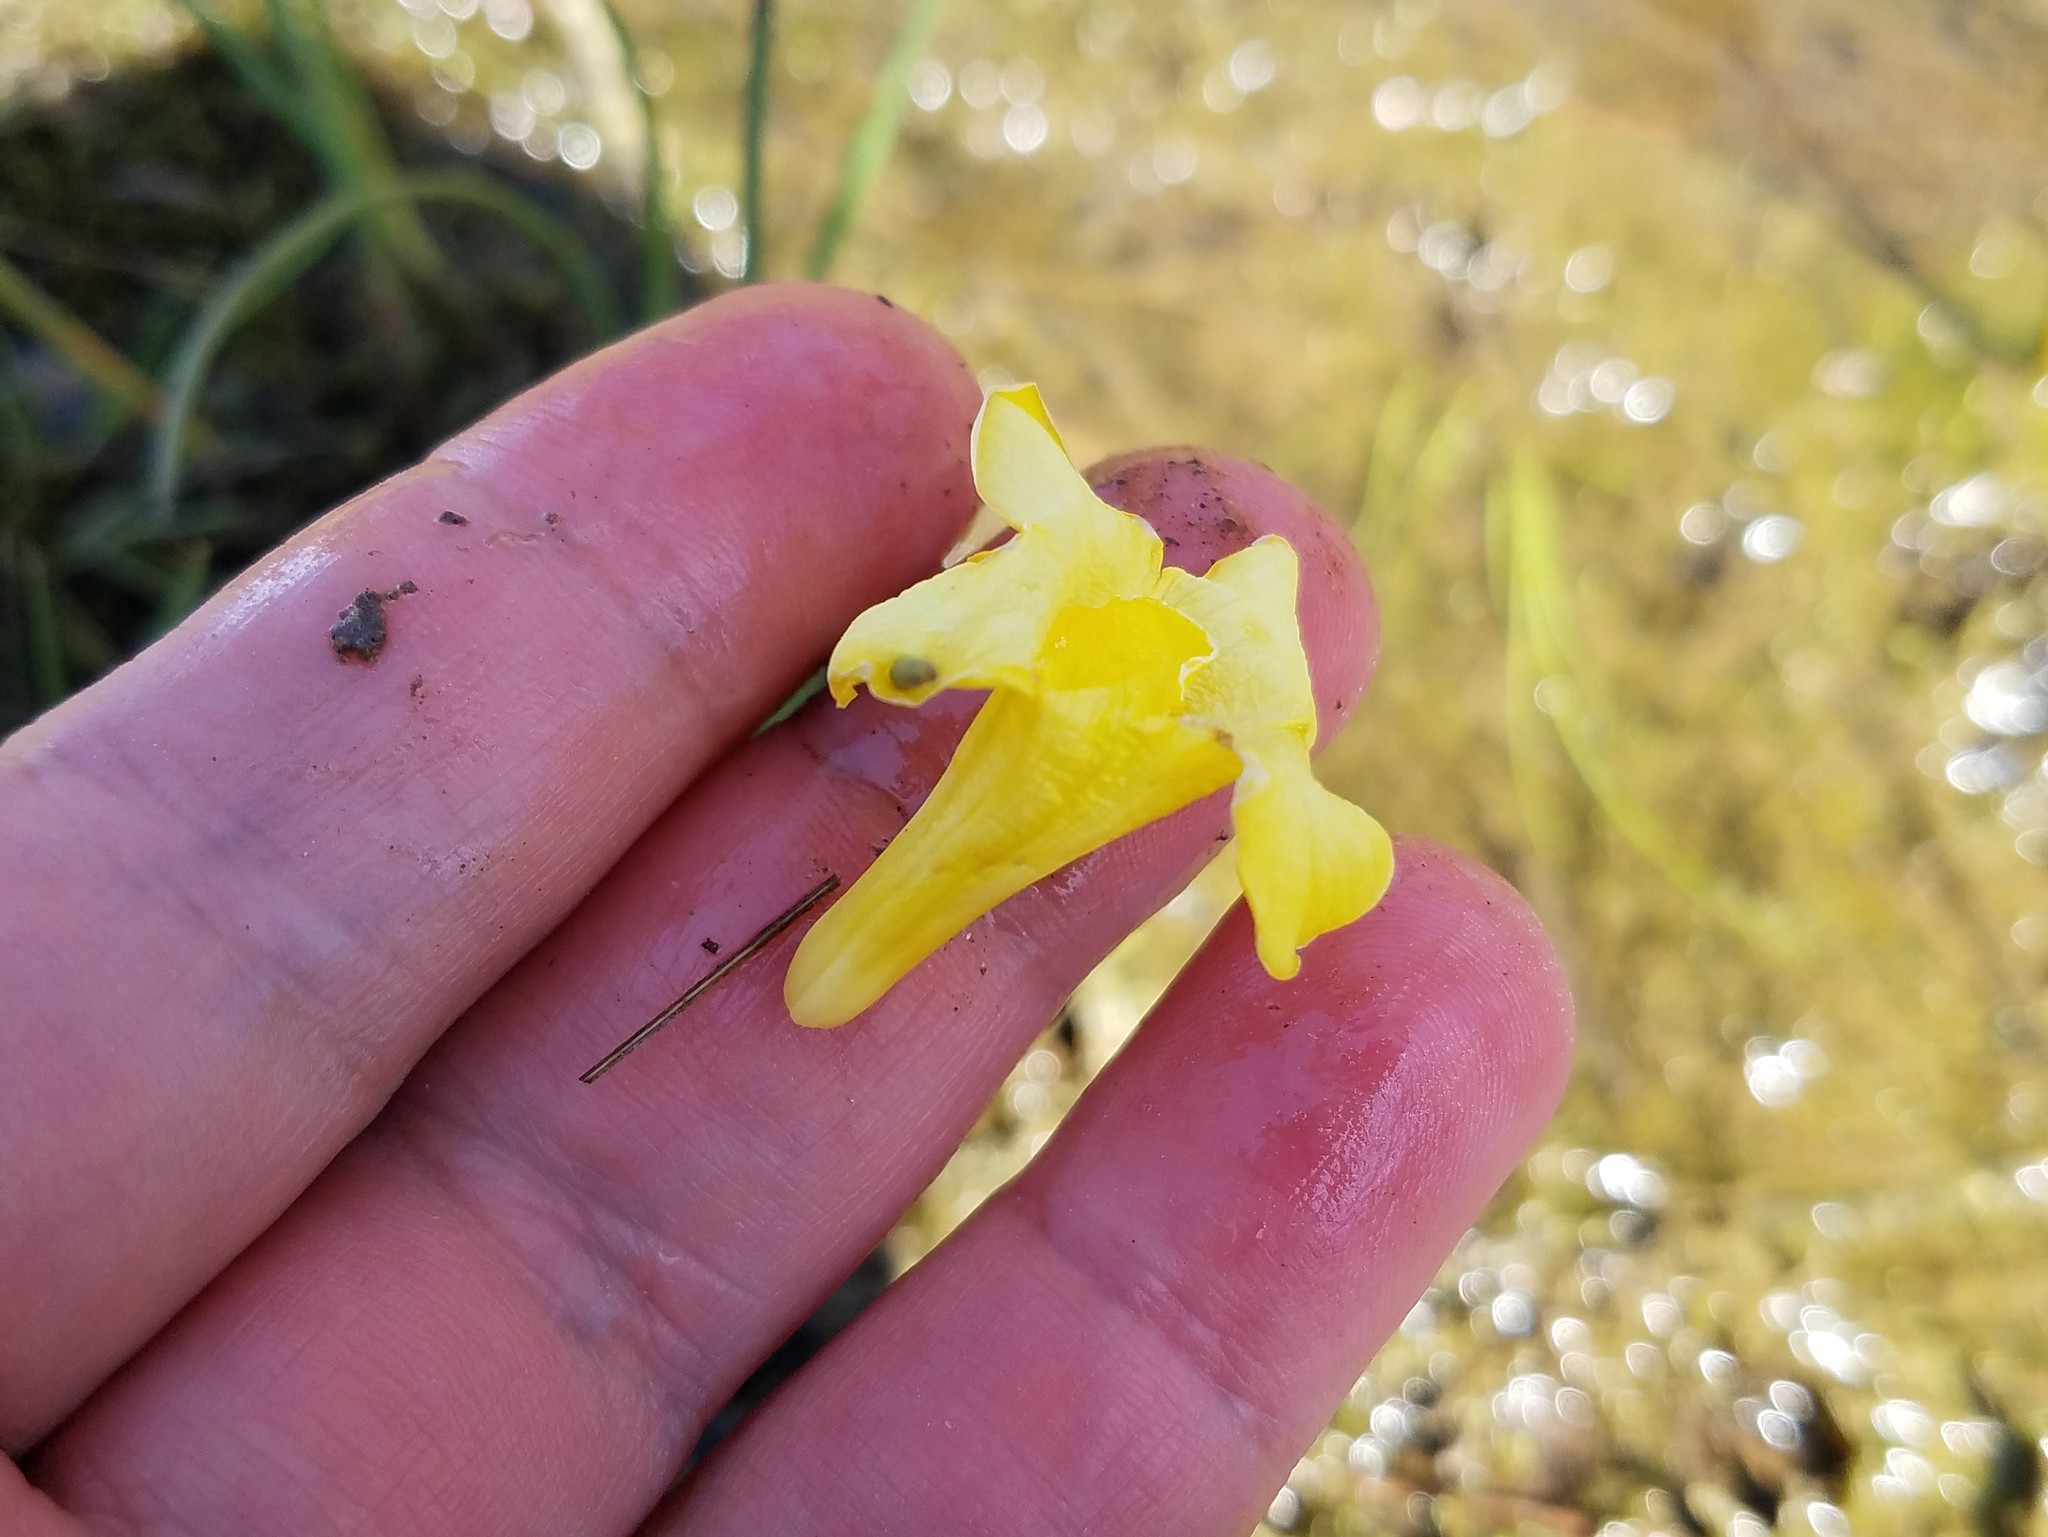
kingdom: Plantae
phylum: Tracheophyta
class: Magnoliopsida
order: Gentianales
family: Gelsemiaceae
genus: Gelsemium
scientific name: Gelsemium sempervirens
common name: Carolina-jasmine
